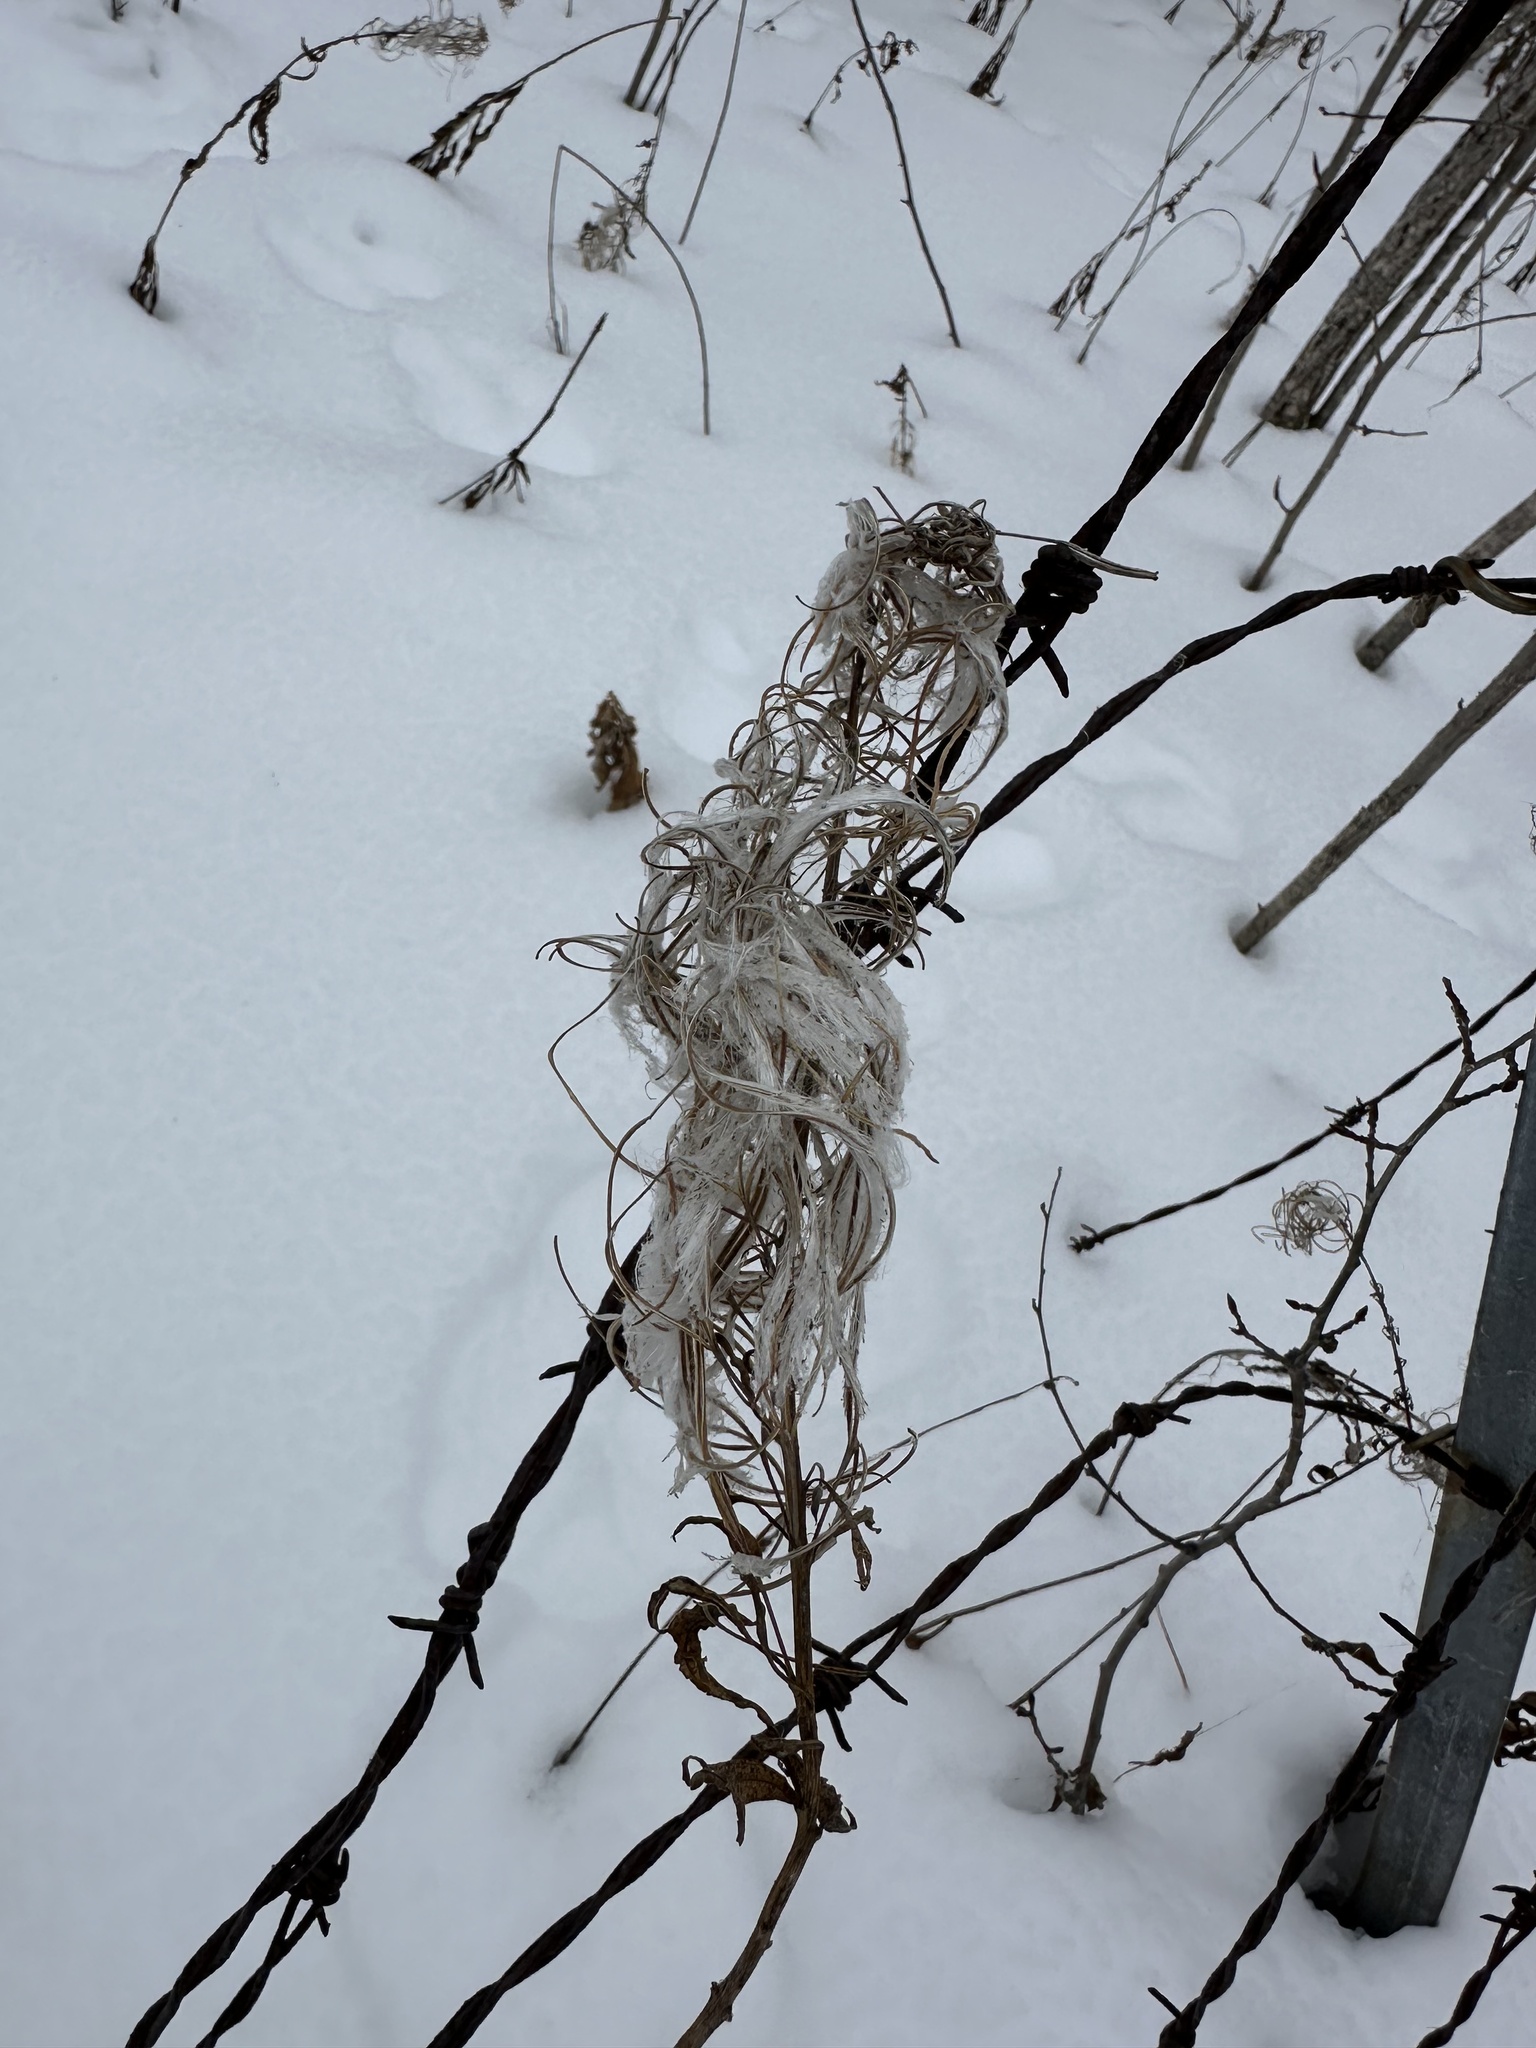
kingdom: Plantae
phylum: Tracheophyta
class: Magnoliopsida
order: Myrtales
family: Onagraceae
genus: Chamaenerion
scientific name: Chamaenerion angustifolium
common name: Fireweed
